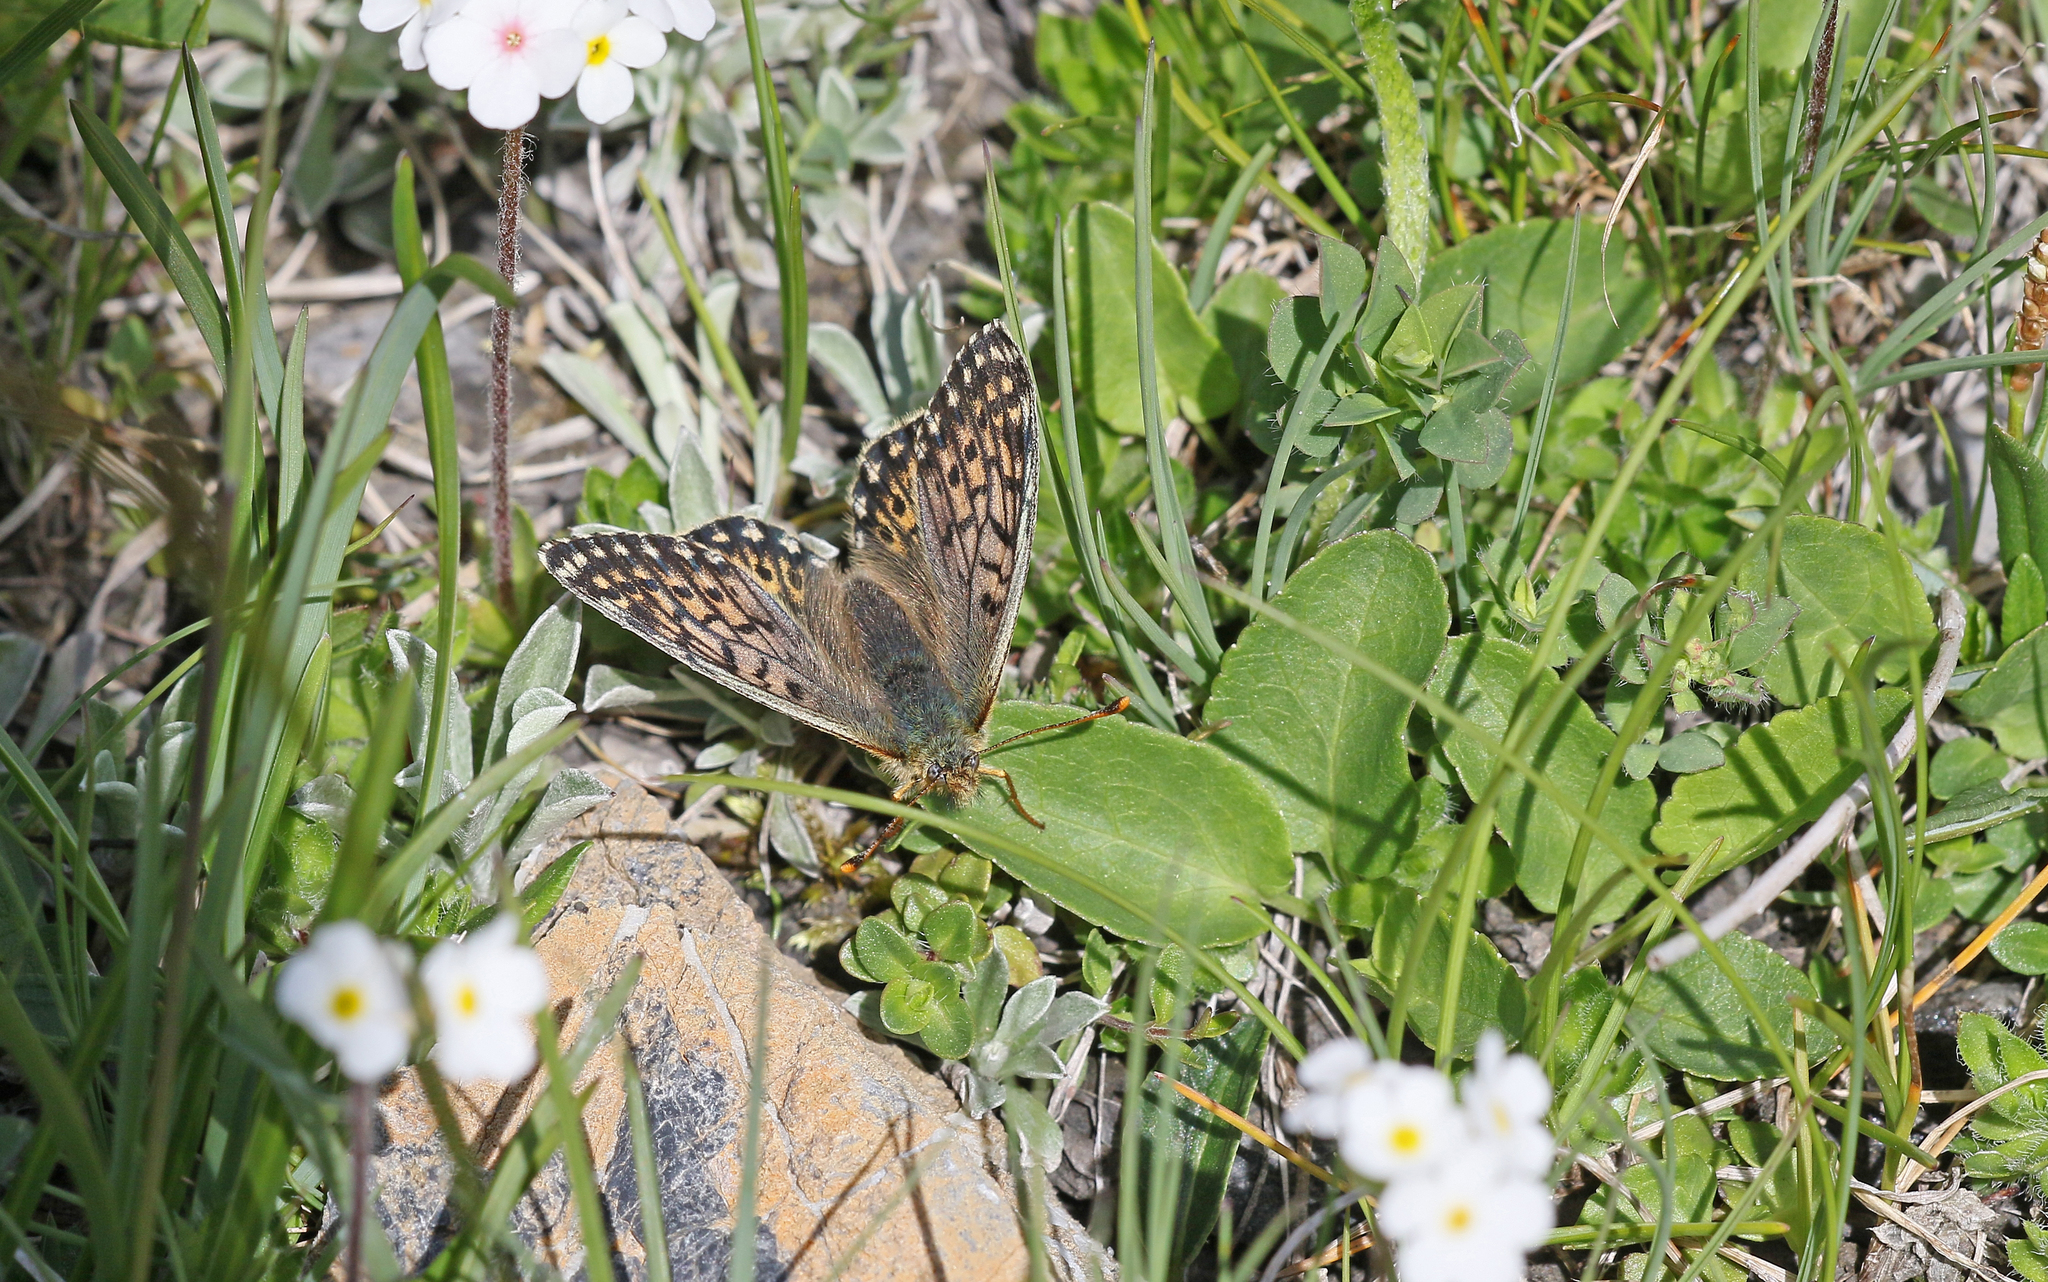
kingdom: Animalia
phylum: Arthropoda
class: Insecta
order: Lepidoptera
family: Nymphalidae
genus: Boloria
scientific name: Boloria napaea
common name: Mountain fritillary
